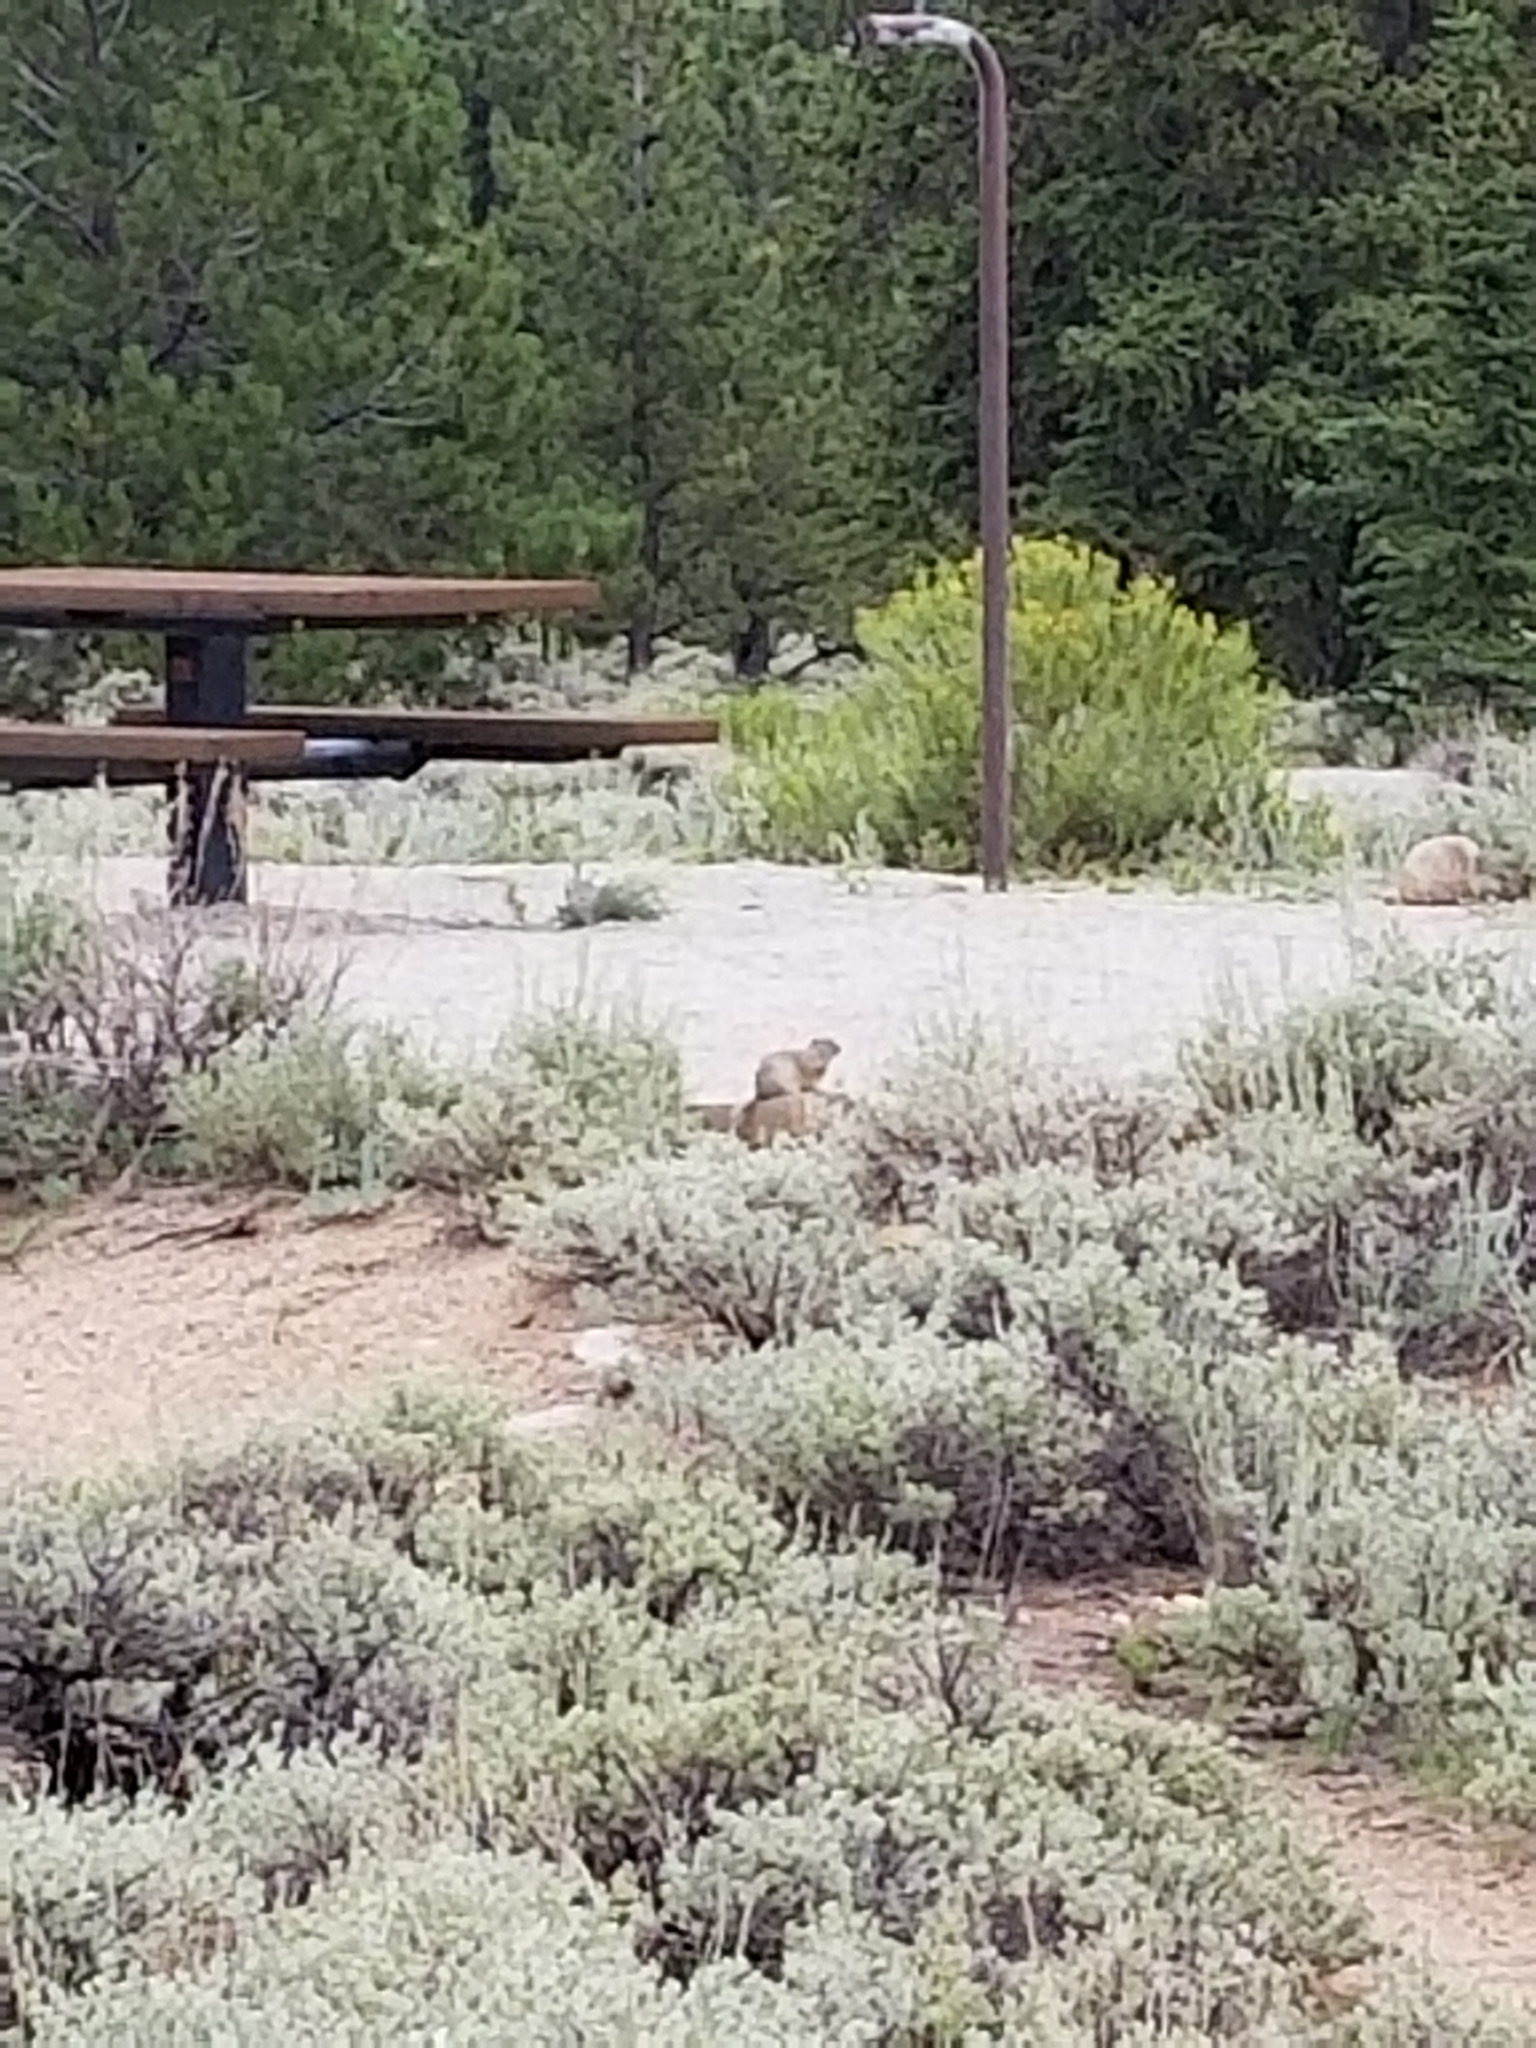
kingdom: Animalia
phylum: Chordata
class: Mammalia
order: Rodentia
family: Sciuridae
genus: Urocitellus
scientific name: Urocitellus elegans
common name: Wyoming ground squirrel
